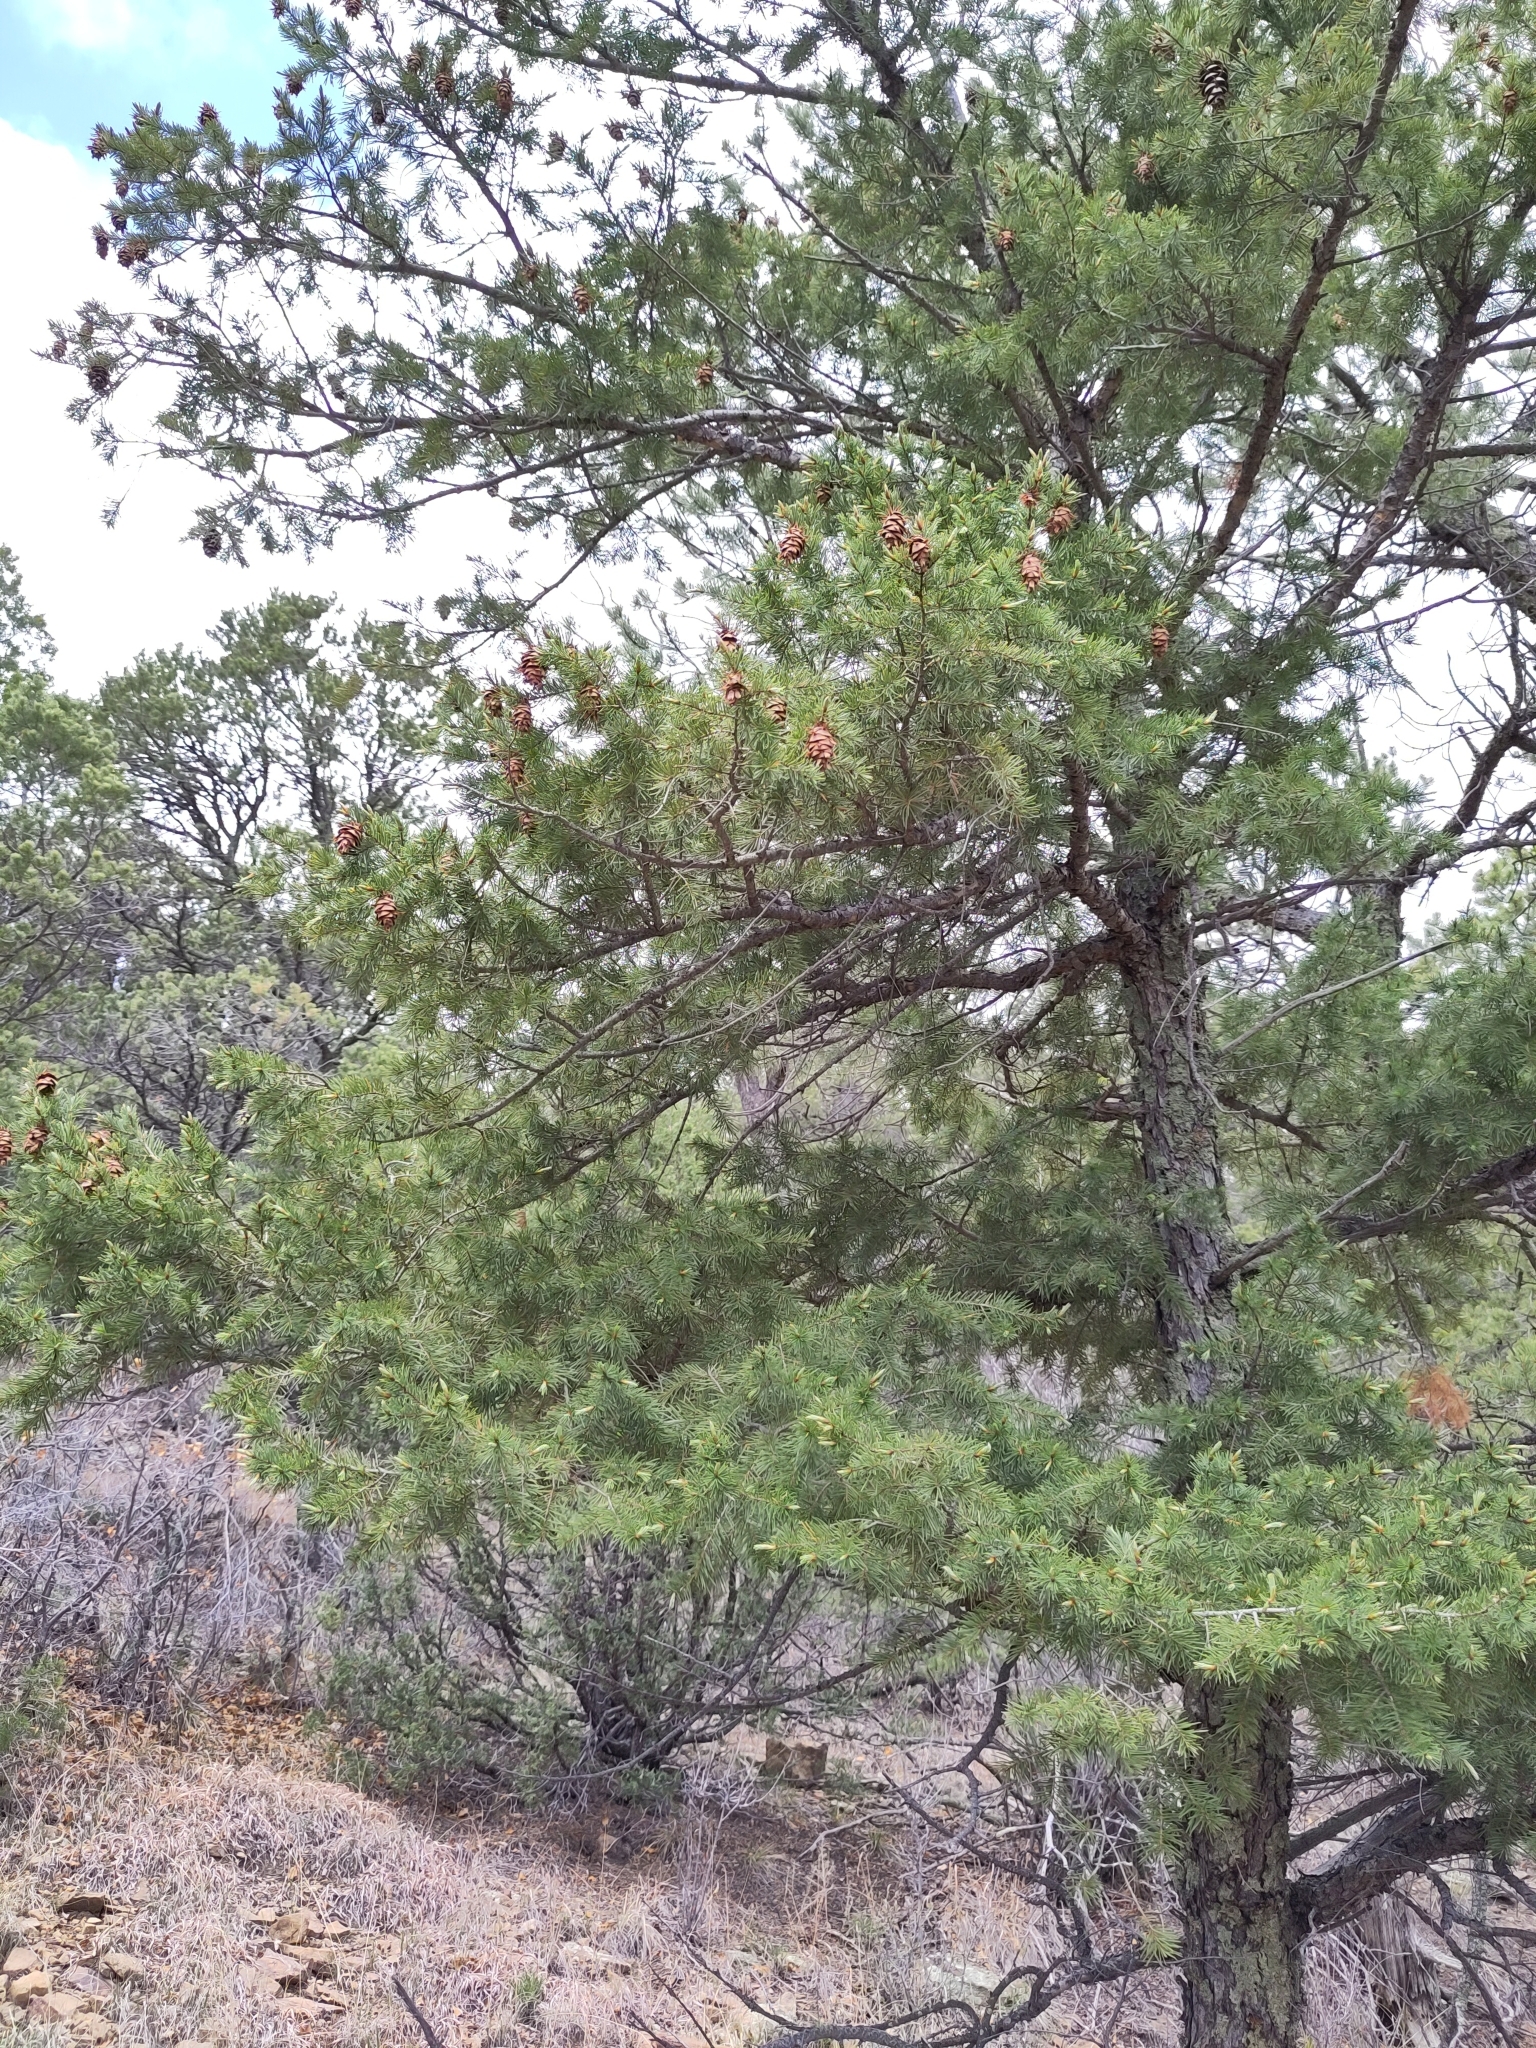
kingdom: Plantae
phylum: Tracheophyta
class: Pinopsida
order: Pinales
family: Pinaceae
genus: Pseudotsuga
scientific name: Pseudotsuga menziesii
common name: Douglas fir
